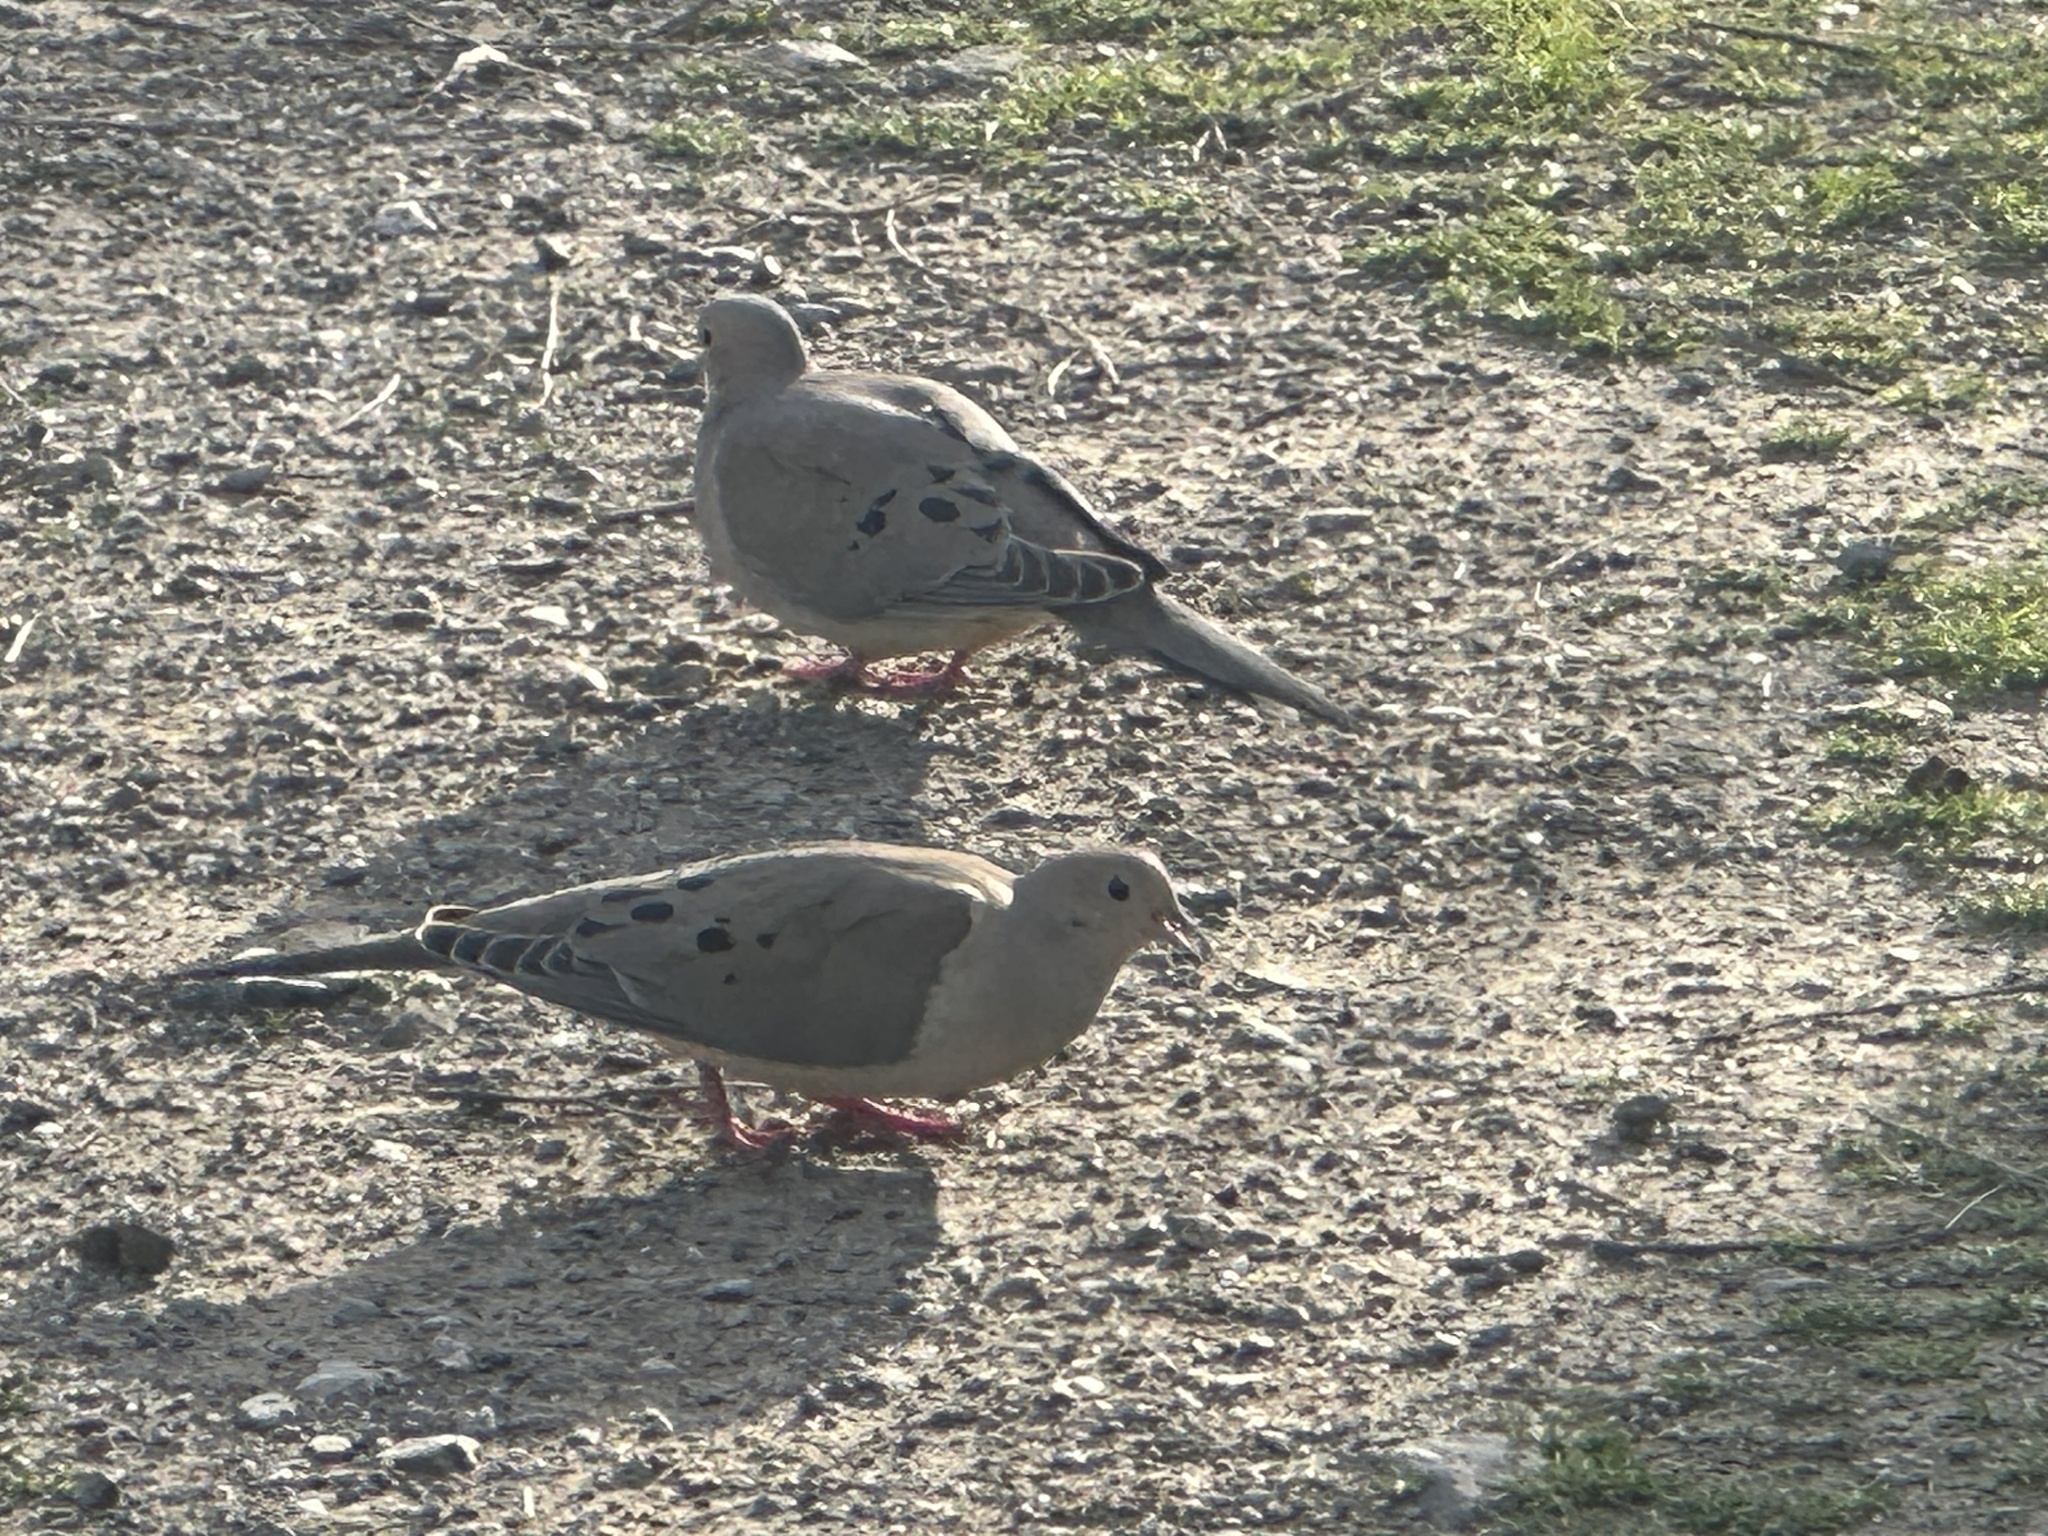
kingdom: Animalia
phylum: Chordata
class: Aves
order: Columbiformes
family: Columbidae
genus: Zenaida
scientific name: Zenaida macroura
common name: Mourning dove
